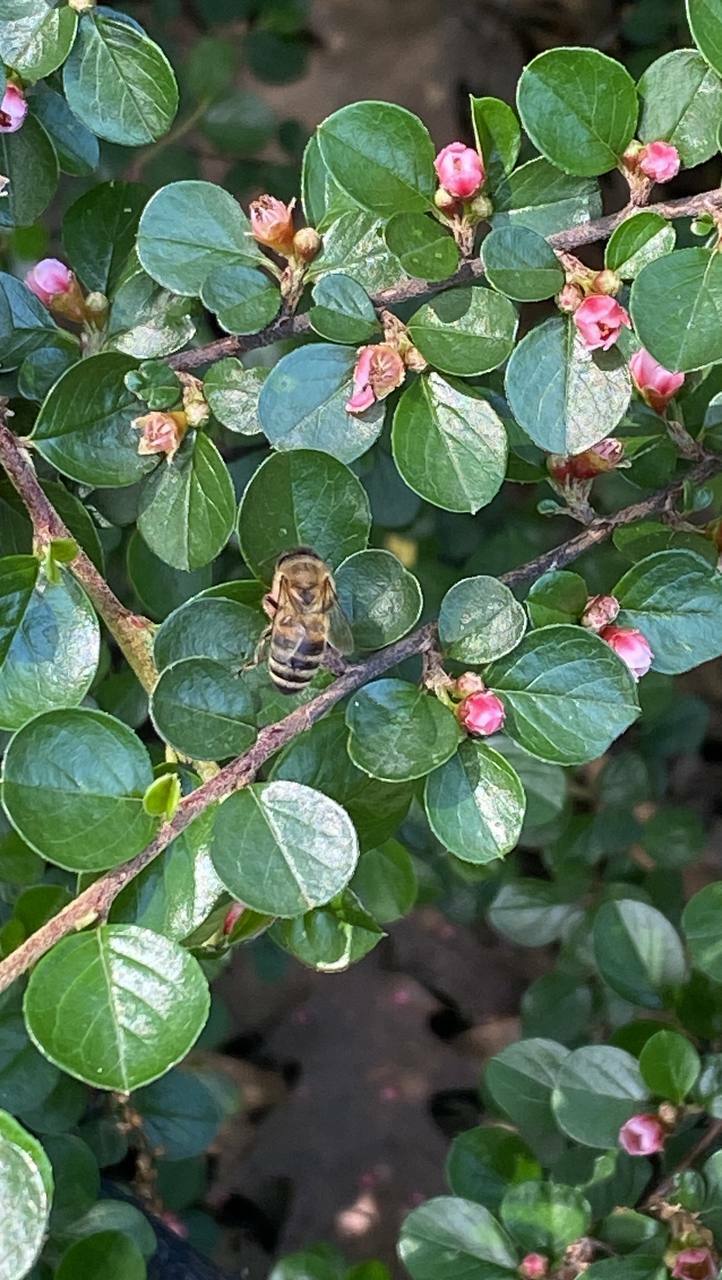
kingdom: Animalia
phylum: Arthropoda
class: Insecta
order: Hymenoptera
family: Apidae
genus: Apis
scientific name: Apis mellifera
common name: Honey bee
